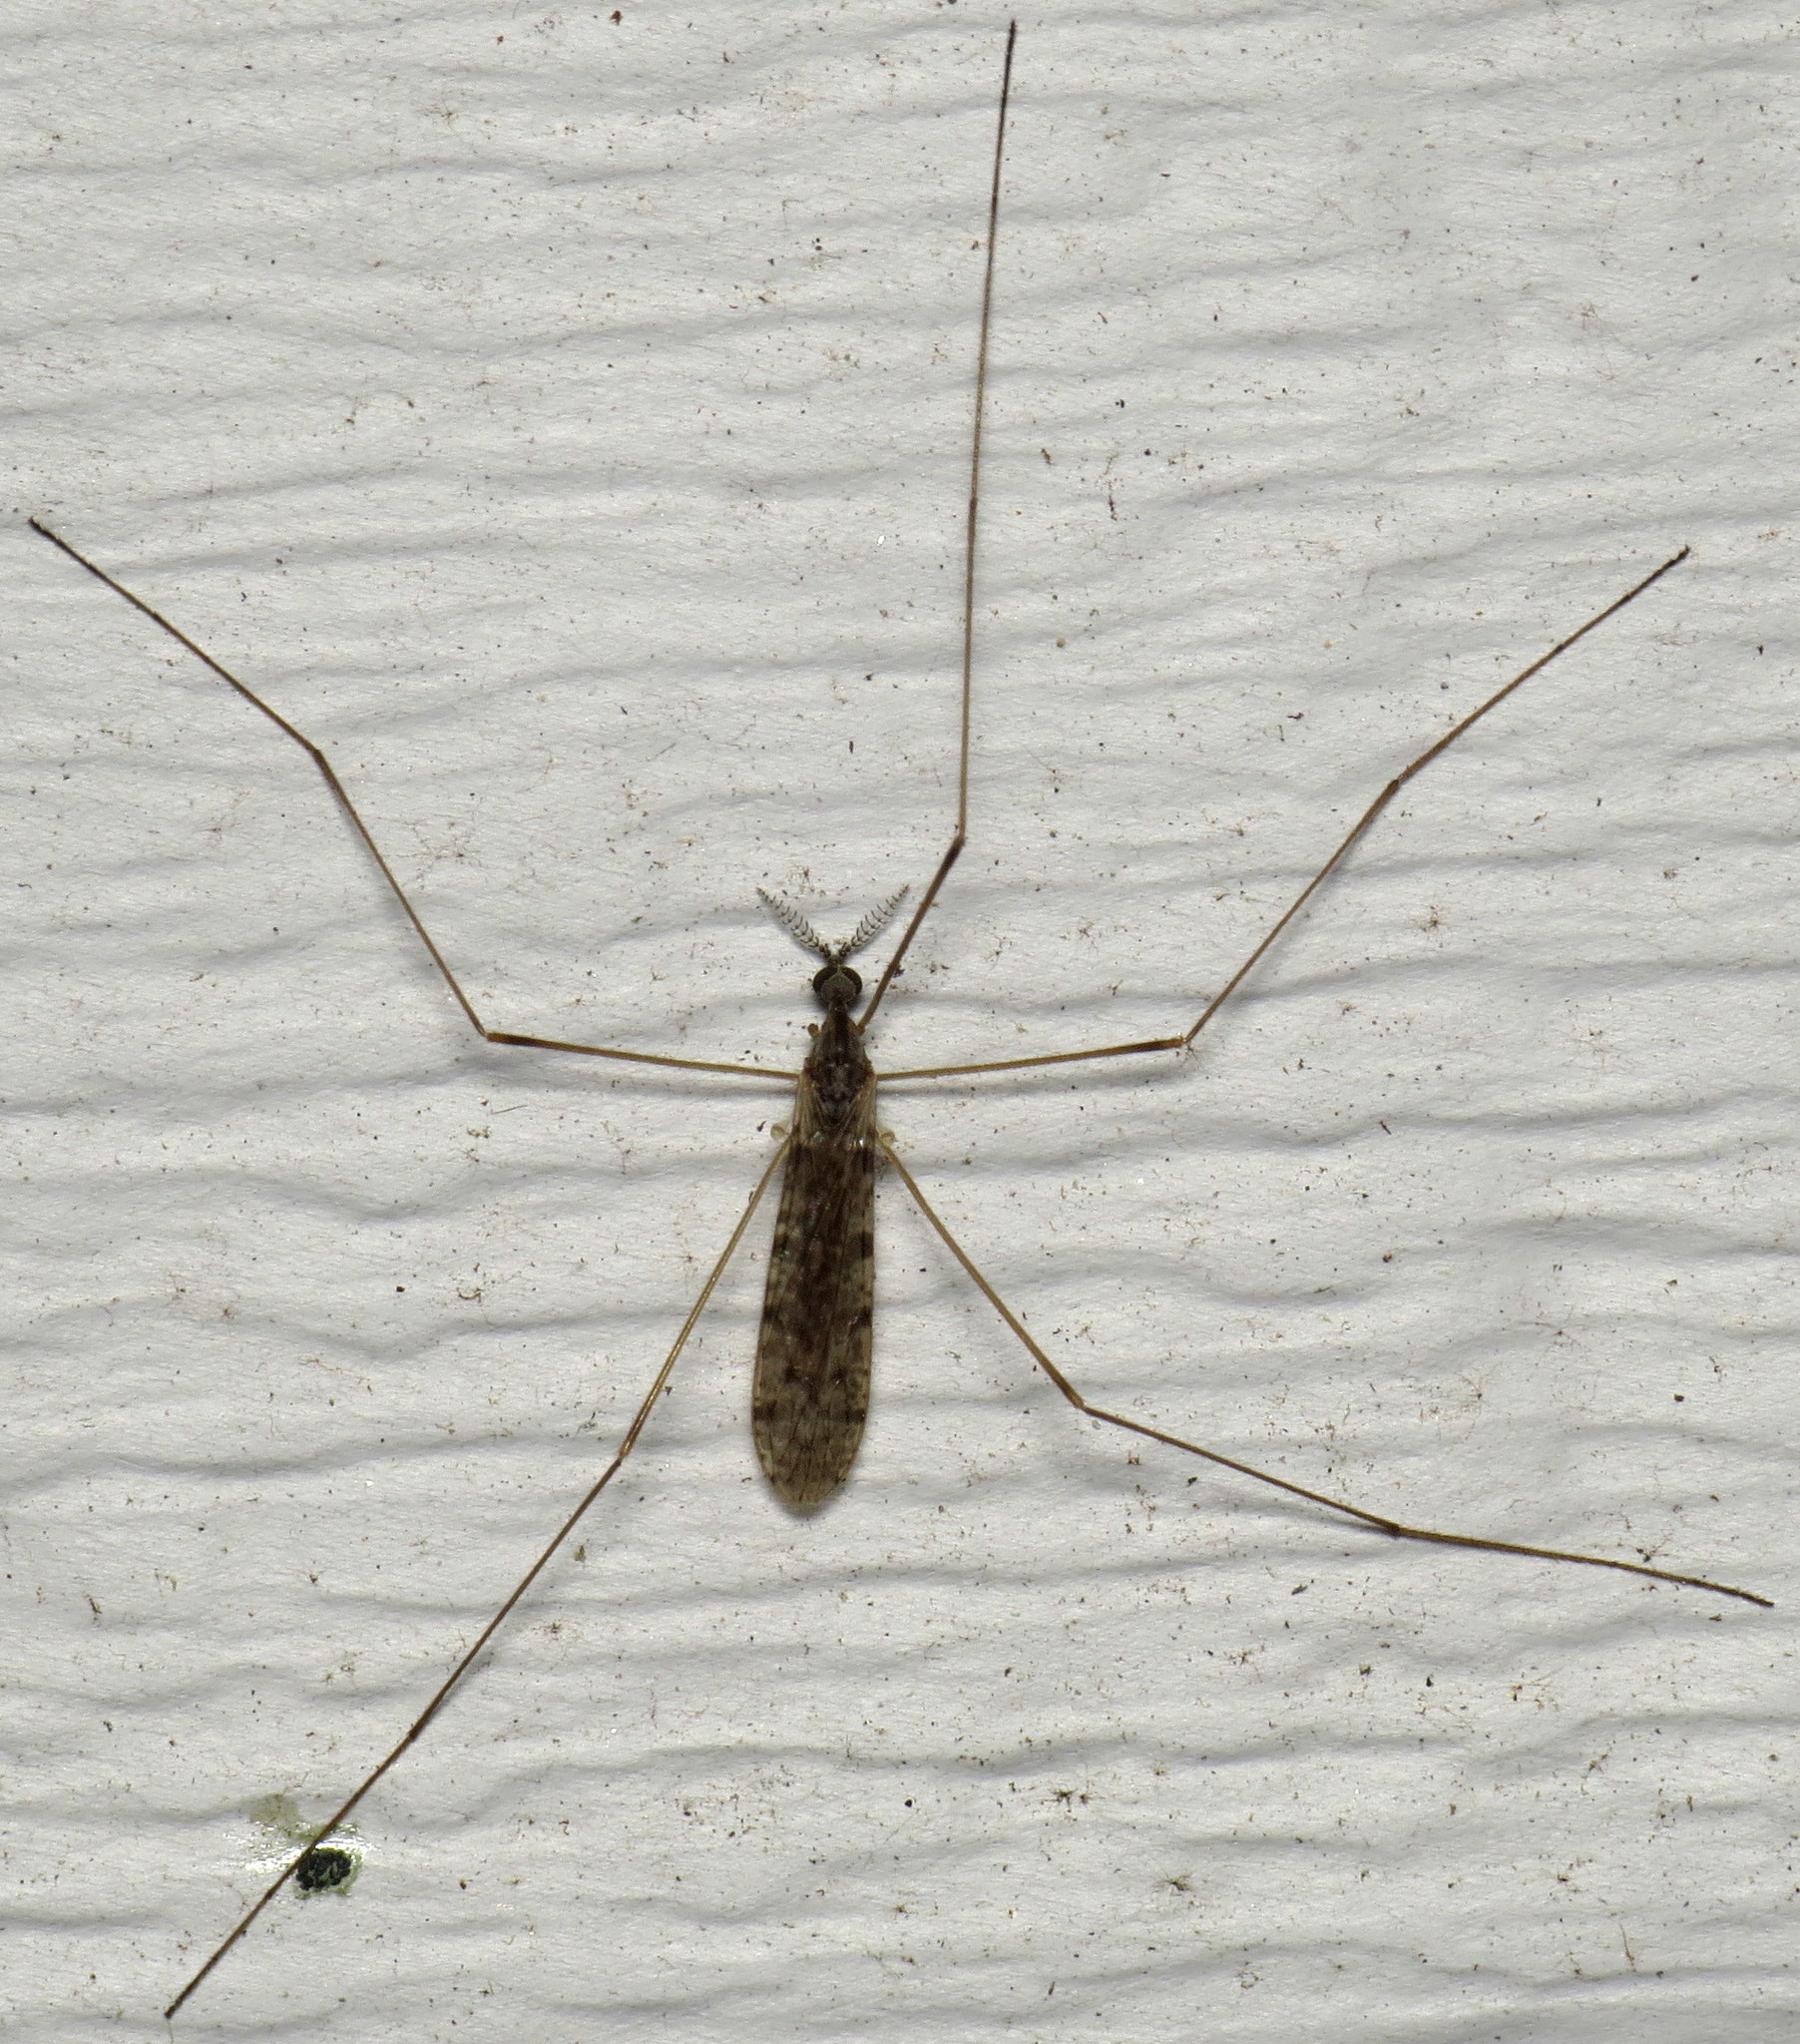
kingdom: Animalia
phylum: Arthropoda
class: Insecta
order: Diptera
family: Limoniidae
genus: Rhipidia
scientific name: Rhipidia maculata
